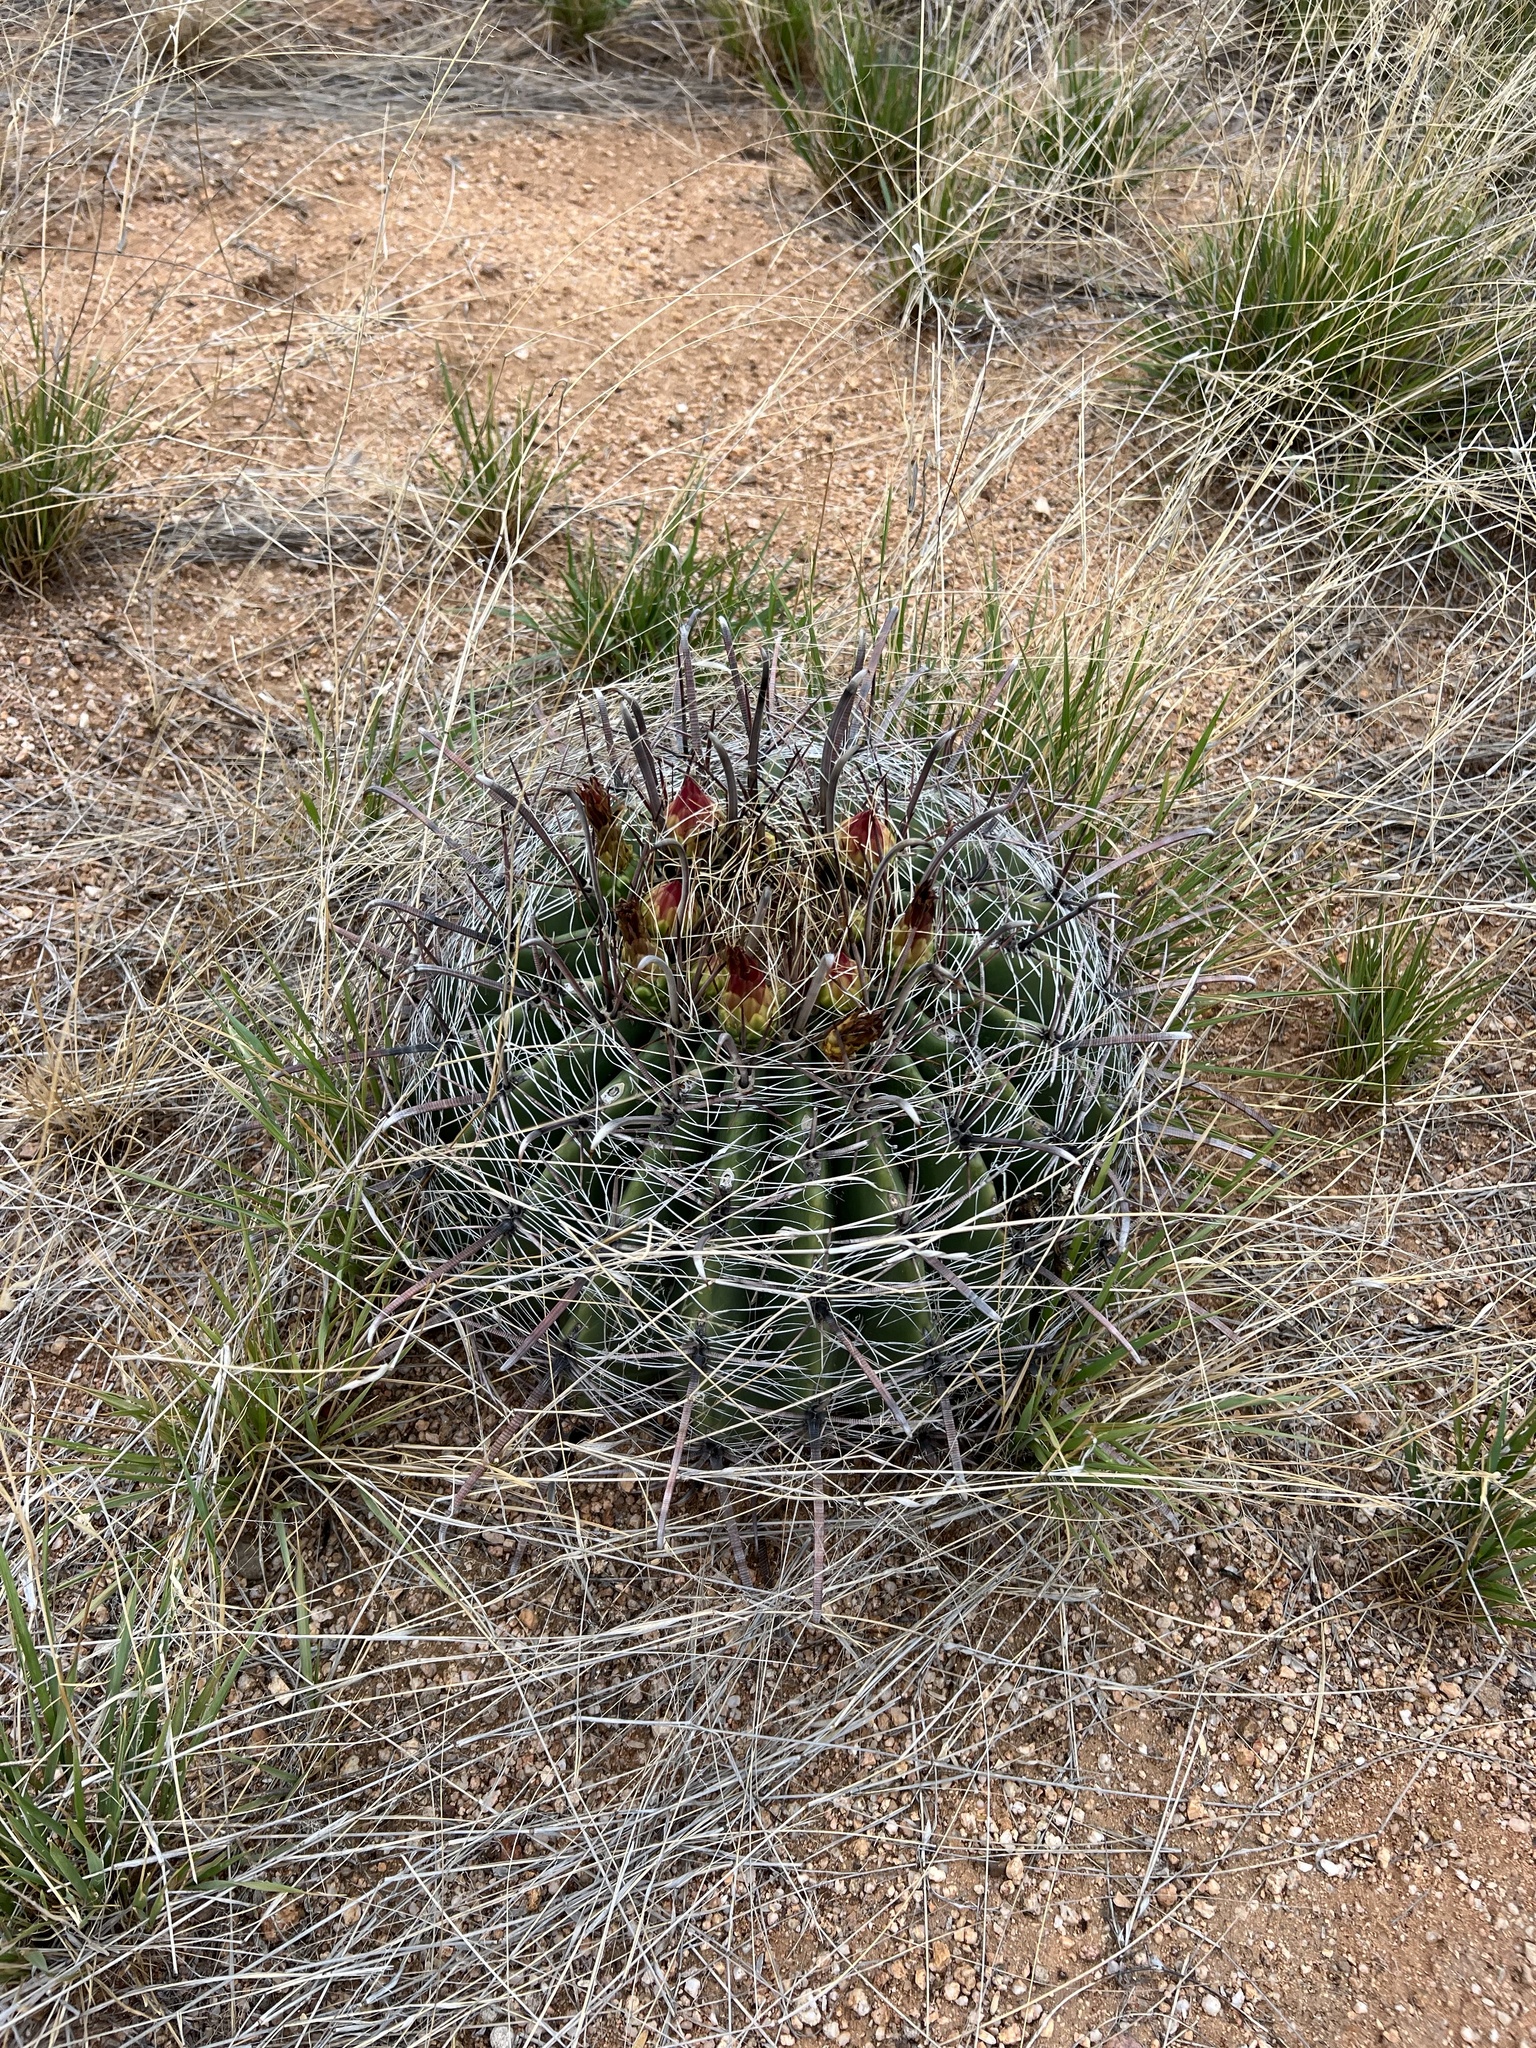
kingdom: Plantae
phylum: Tracheophyta
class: Magnoliopsida
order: Caryophyllales
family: Cactaceae
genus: Ferocactus
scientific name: Ferocactus wislizeni
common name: Candy barrel cactus
